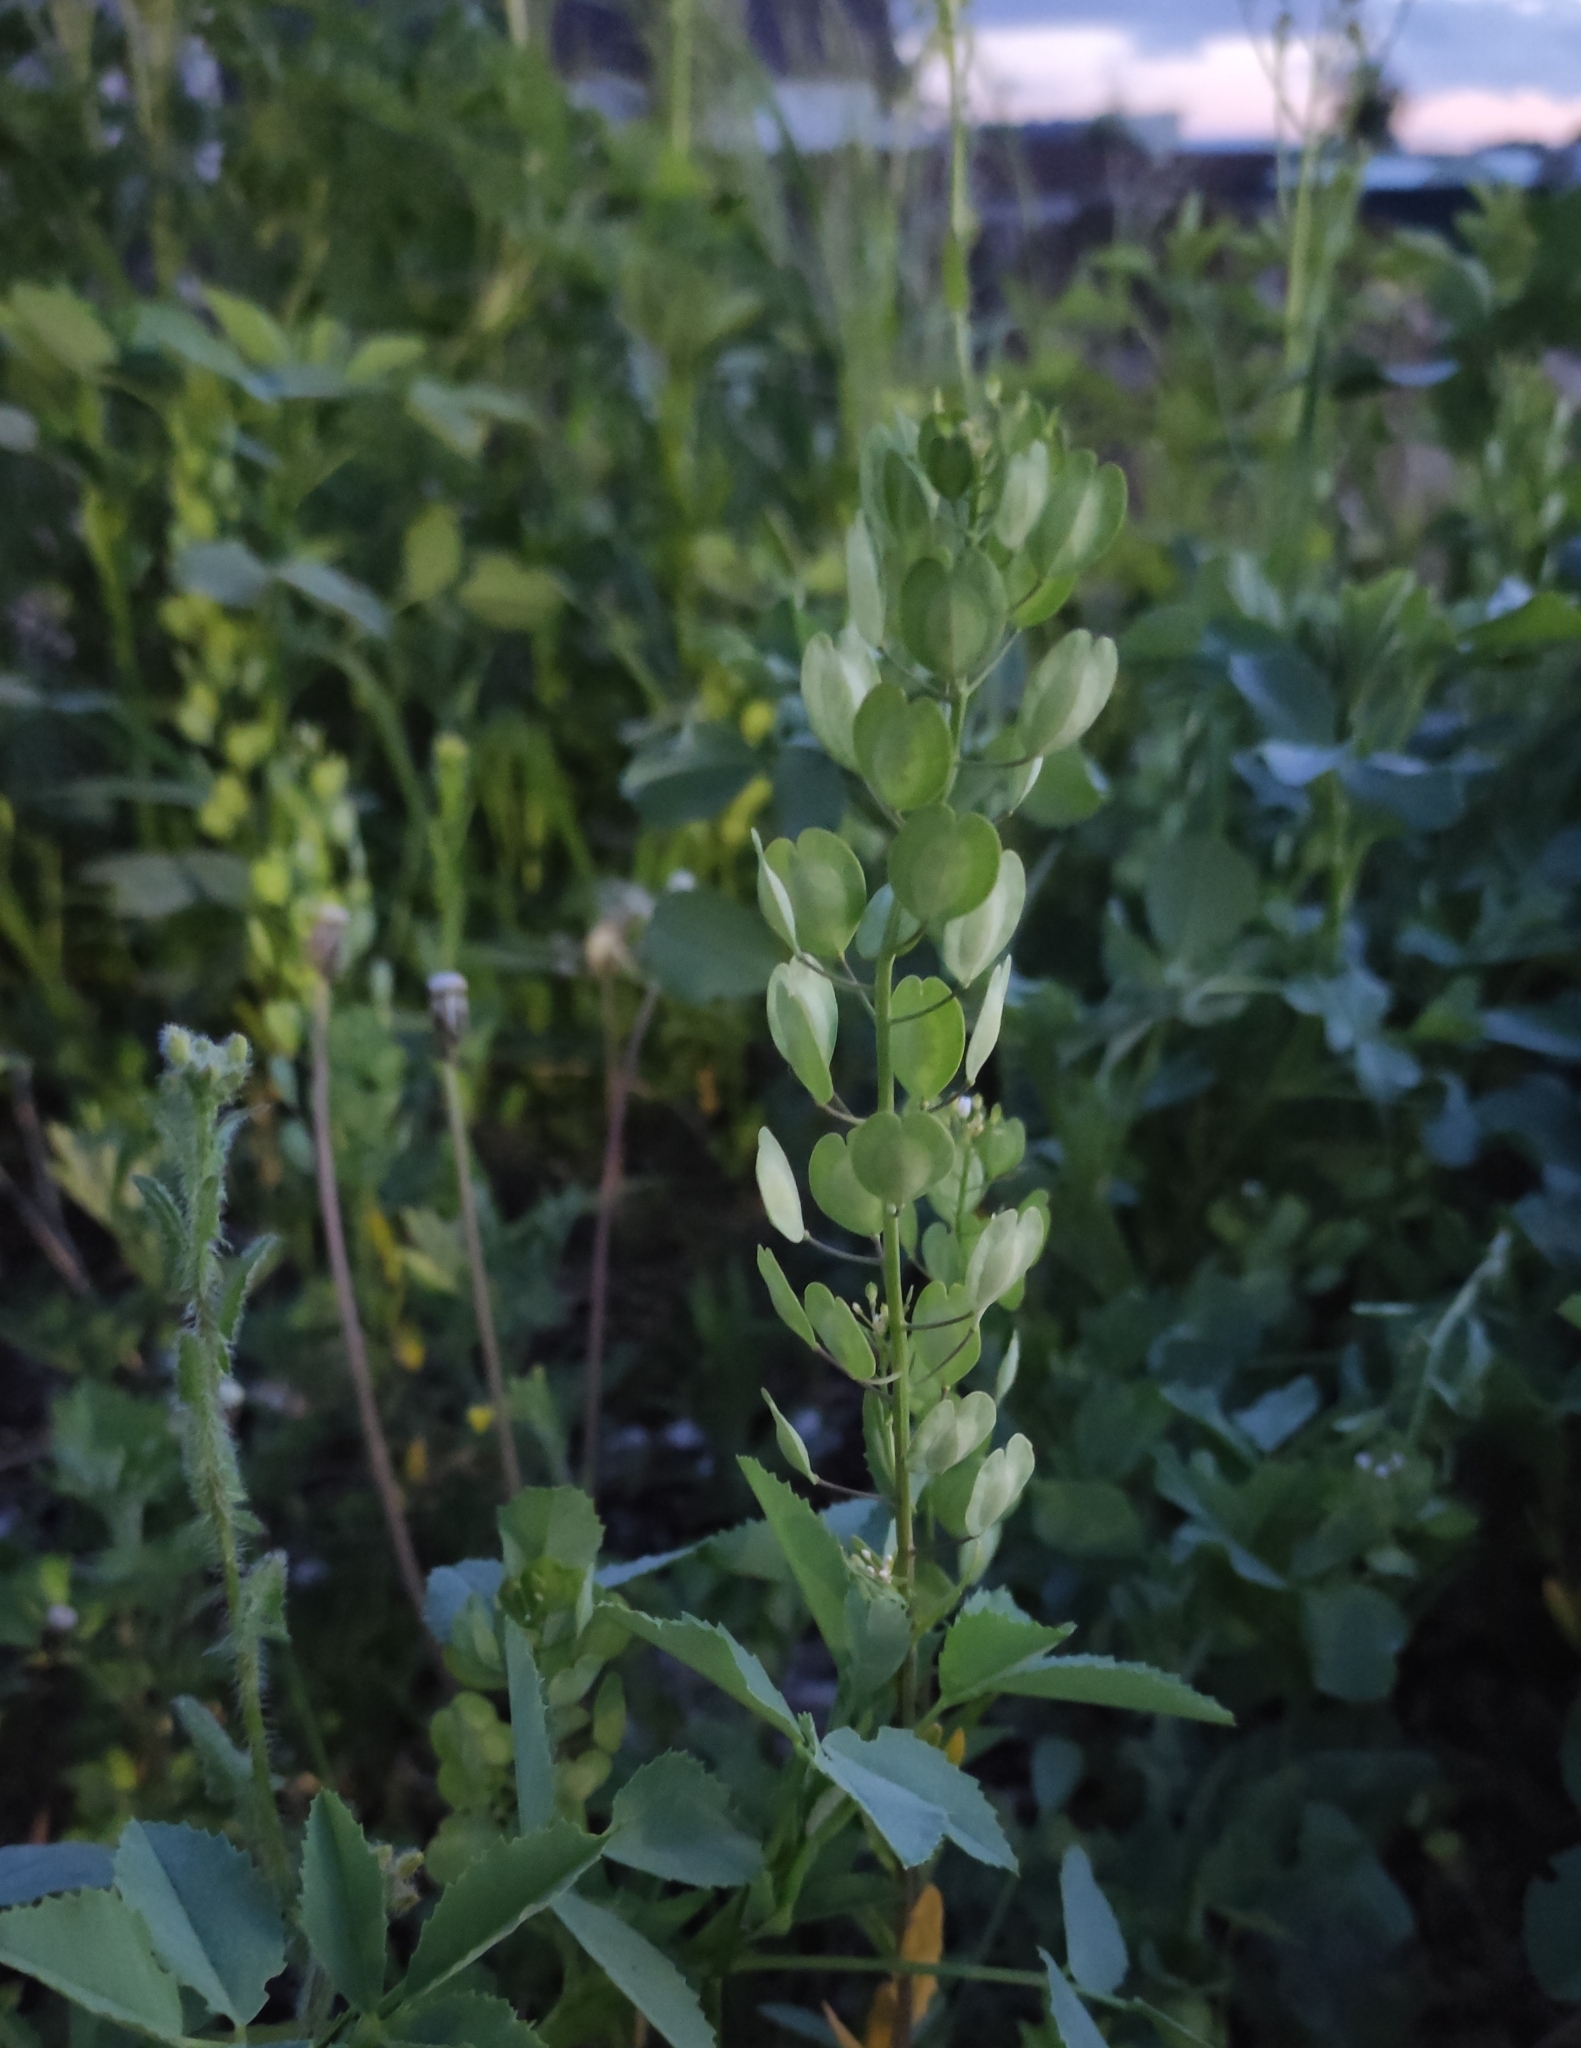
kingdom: Plantae
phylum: Tracheophyta
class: Magnoliopsida
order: Brassicales
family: Brassicaceae
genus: Thlaspi
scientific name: Thlaspi arvense
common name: Field pennycress
